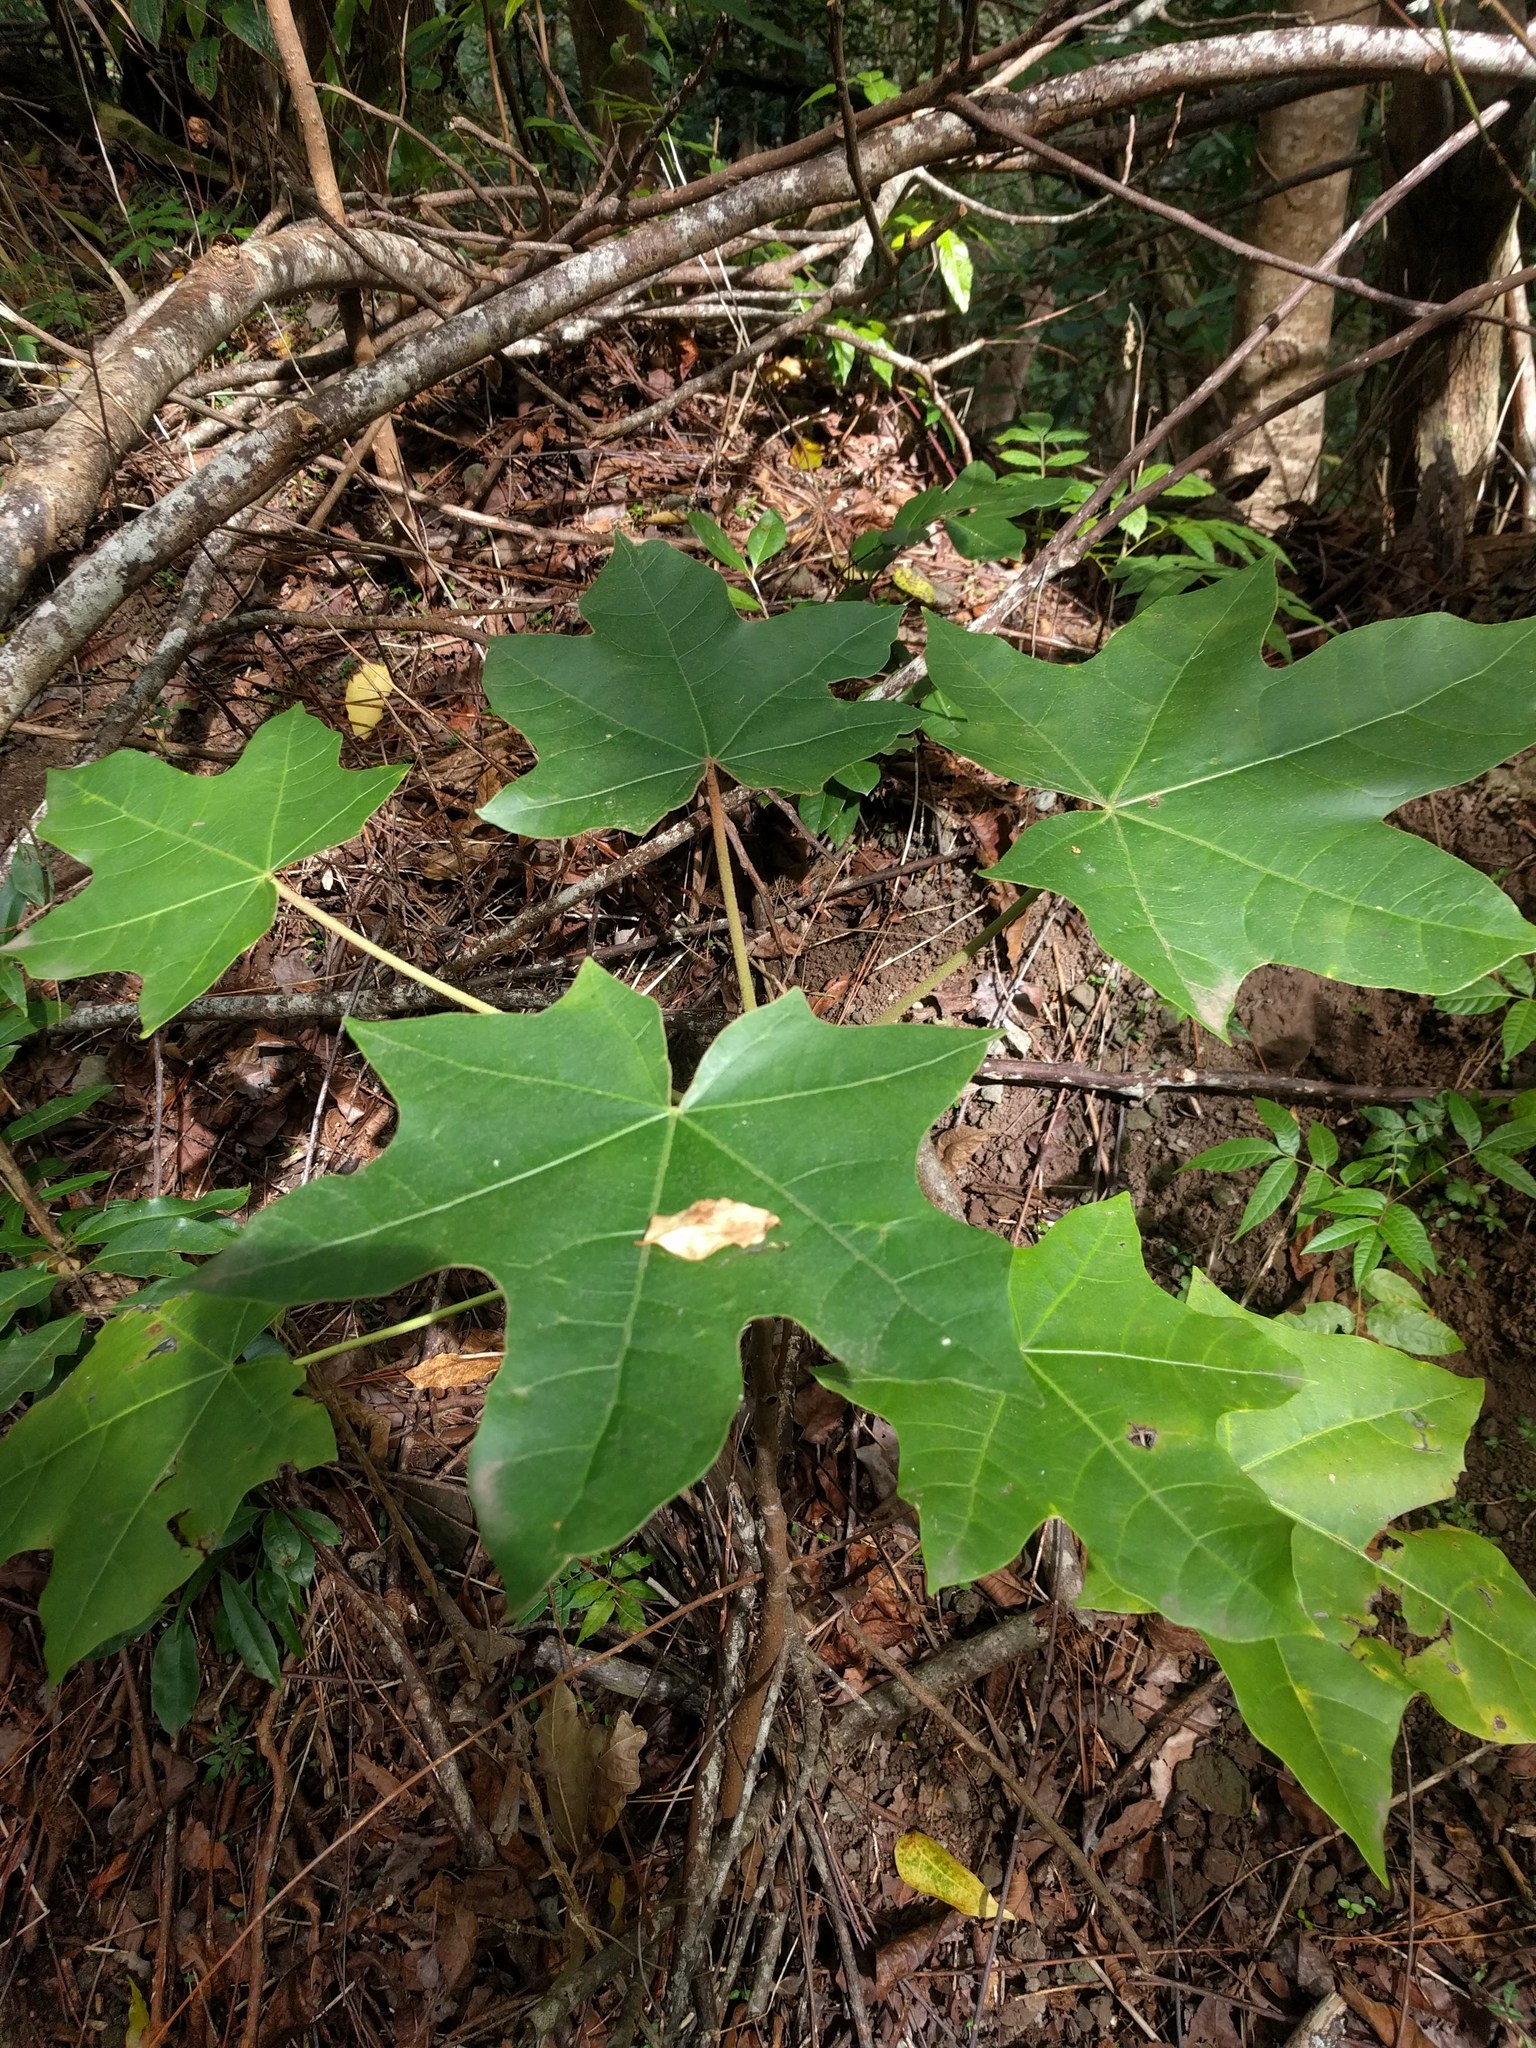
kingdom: Plantae
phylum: Tracheophyta
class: Magnoliopsida
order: Malpighiales
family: Euphorbiaceae
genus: Aleurites
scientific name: Aleurites moluccanus
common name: Candlenut tree
